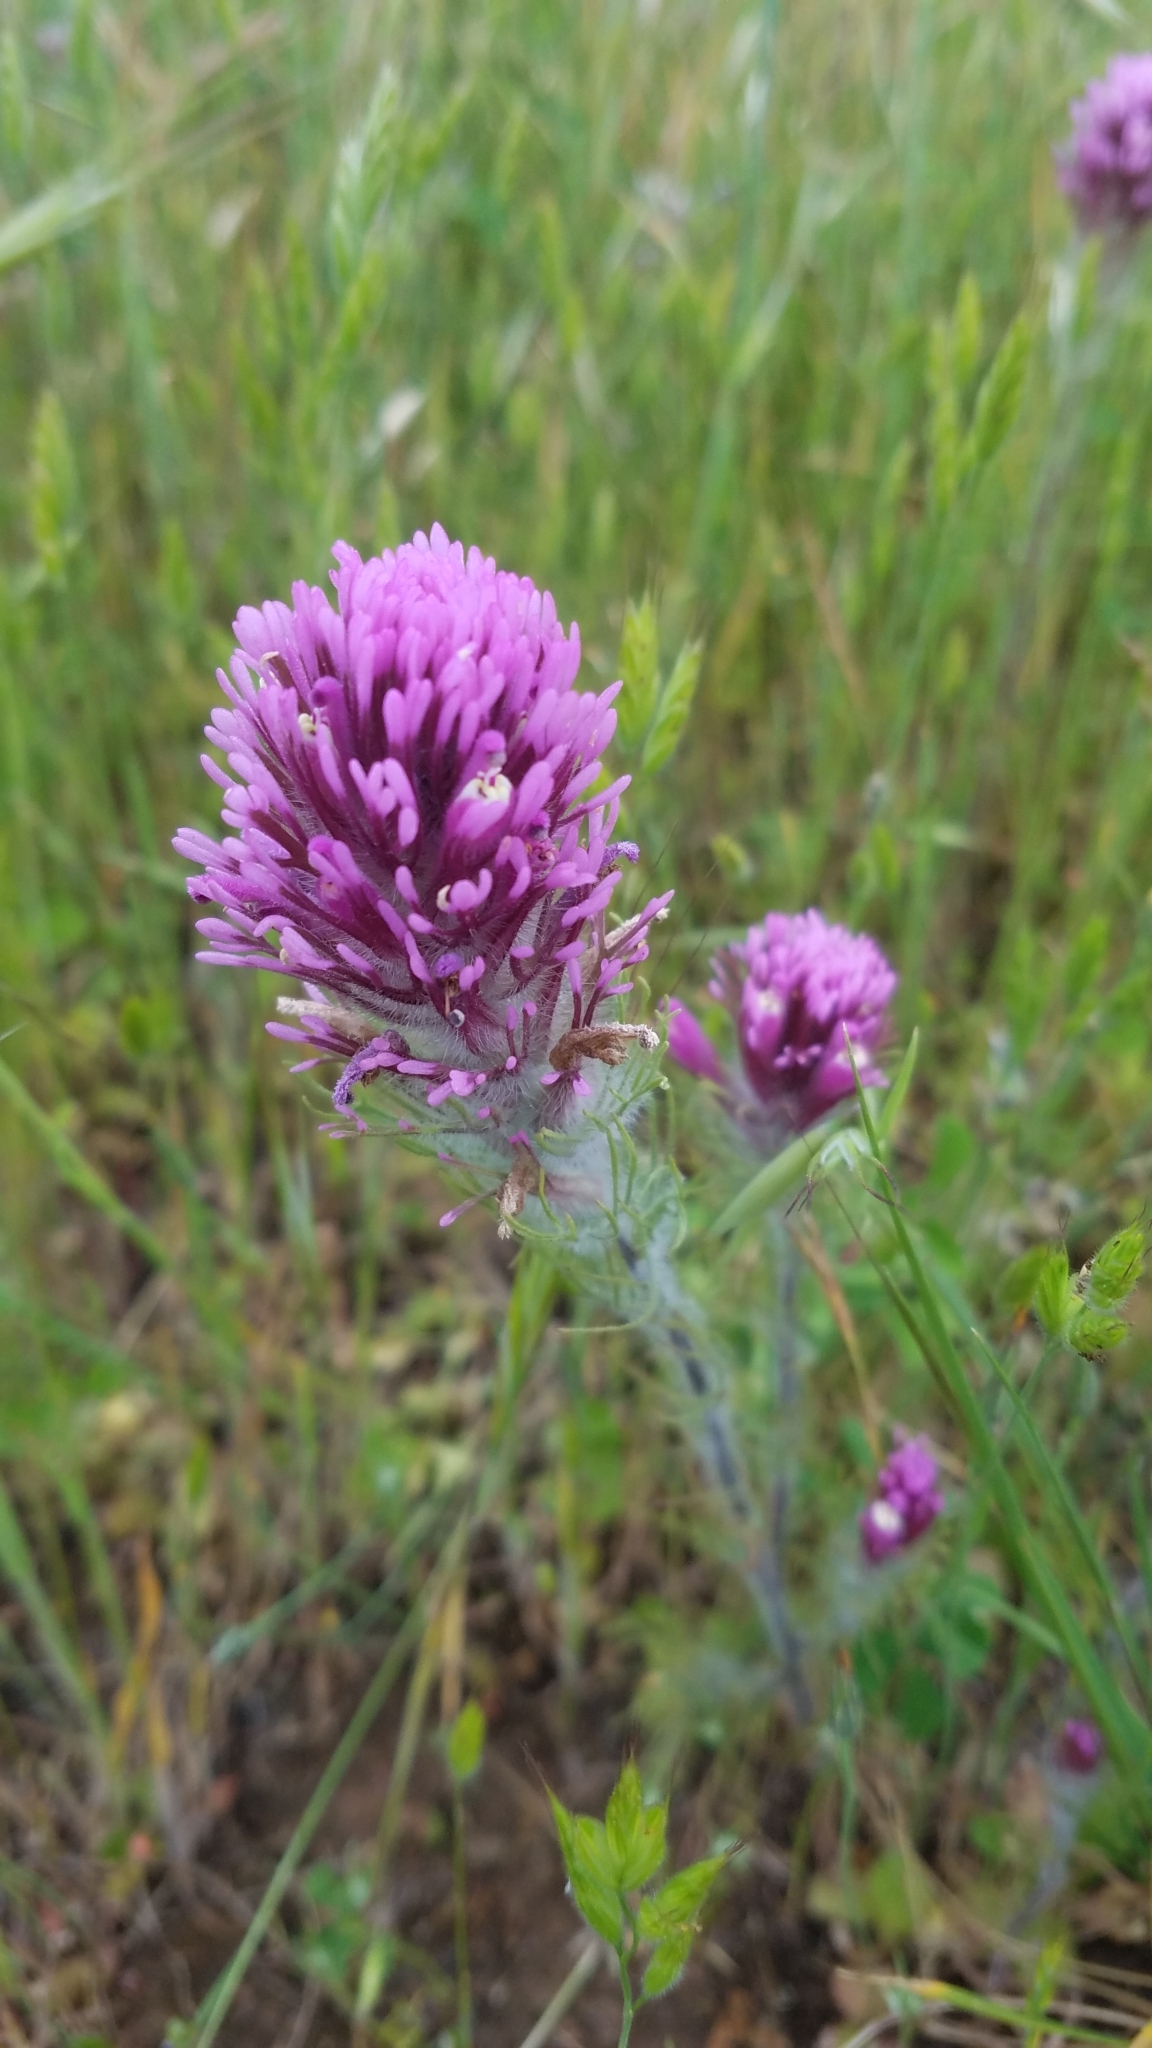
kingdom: Plantae
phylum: Tracheophyta
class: Magnoliopsida
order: Lamiales
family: Orobanchaceae
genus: Castilleja
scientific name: Castilleja exserta
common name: Purple owl-clover
